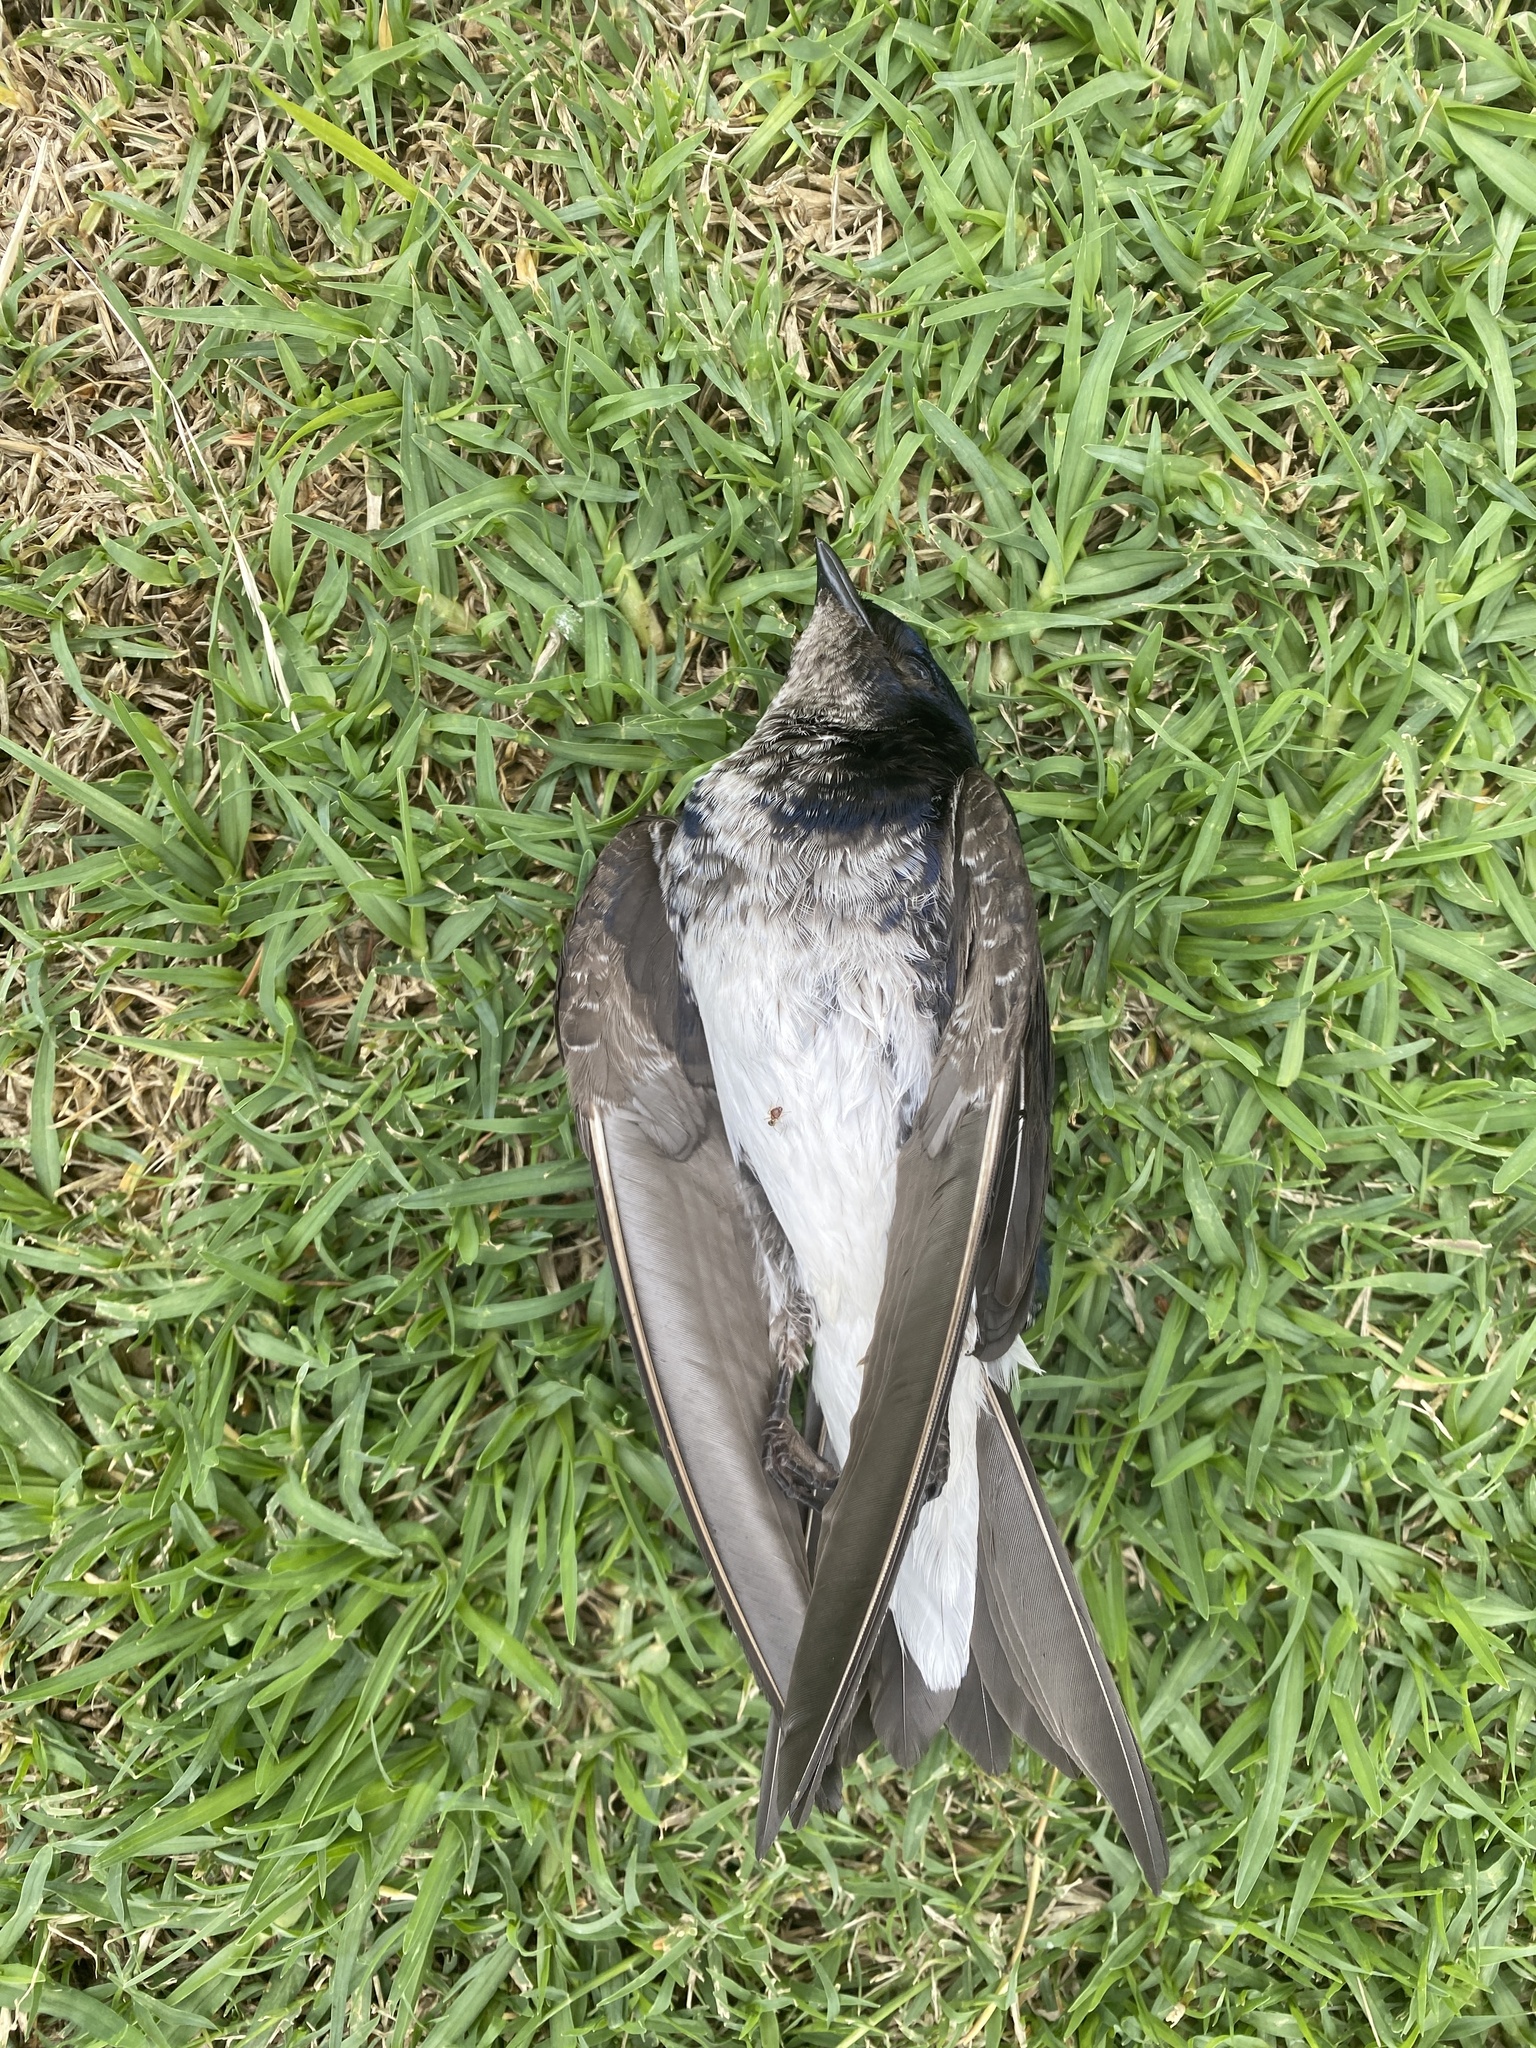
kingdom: Animalia
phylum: Chordata
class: Aves
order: Passeriformes
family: Hirundinidae
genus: Notiochelidon
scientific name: Notiochelidon cyanoleuca
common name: Blue-and-white swallow
